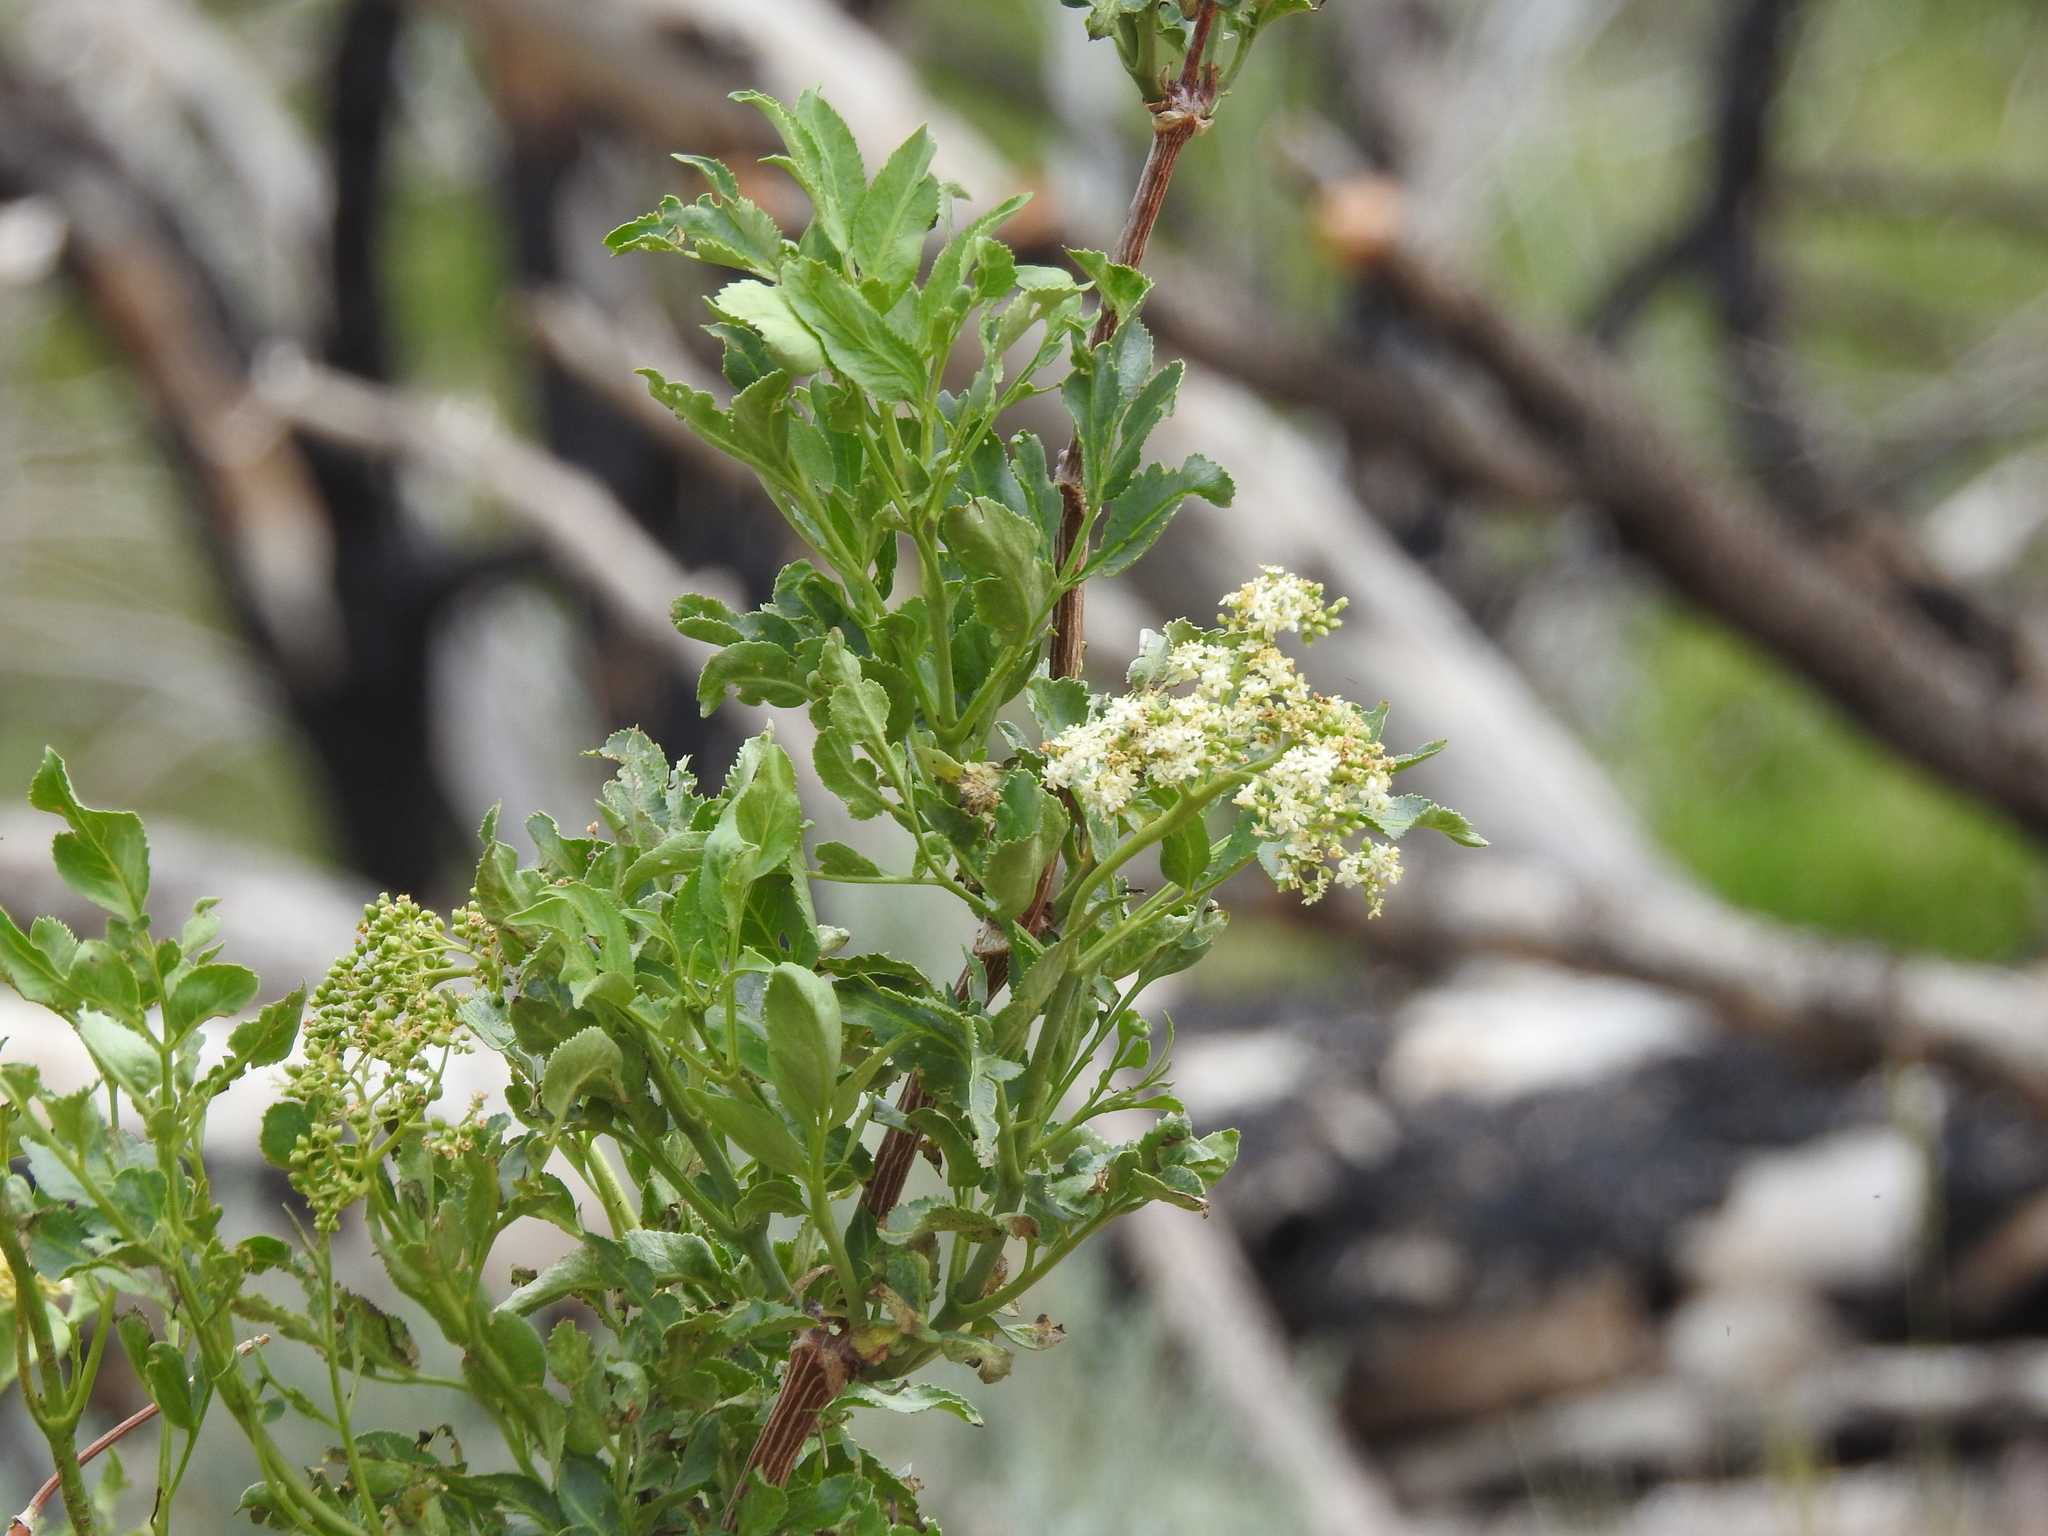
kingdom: Plantae
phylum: Tracheophyta
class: Magnoliopsida
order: Dipsacales
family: Viburnaceae
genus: Sambucus
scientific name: Sambucus cerulea
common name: Blue elder
